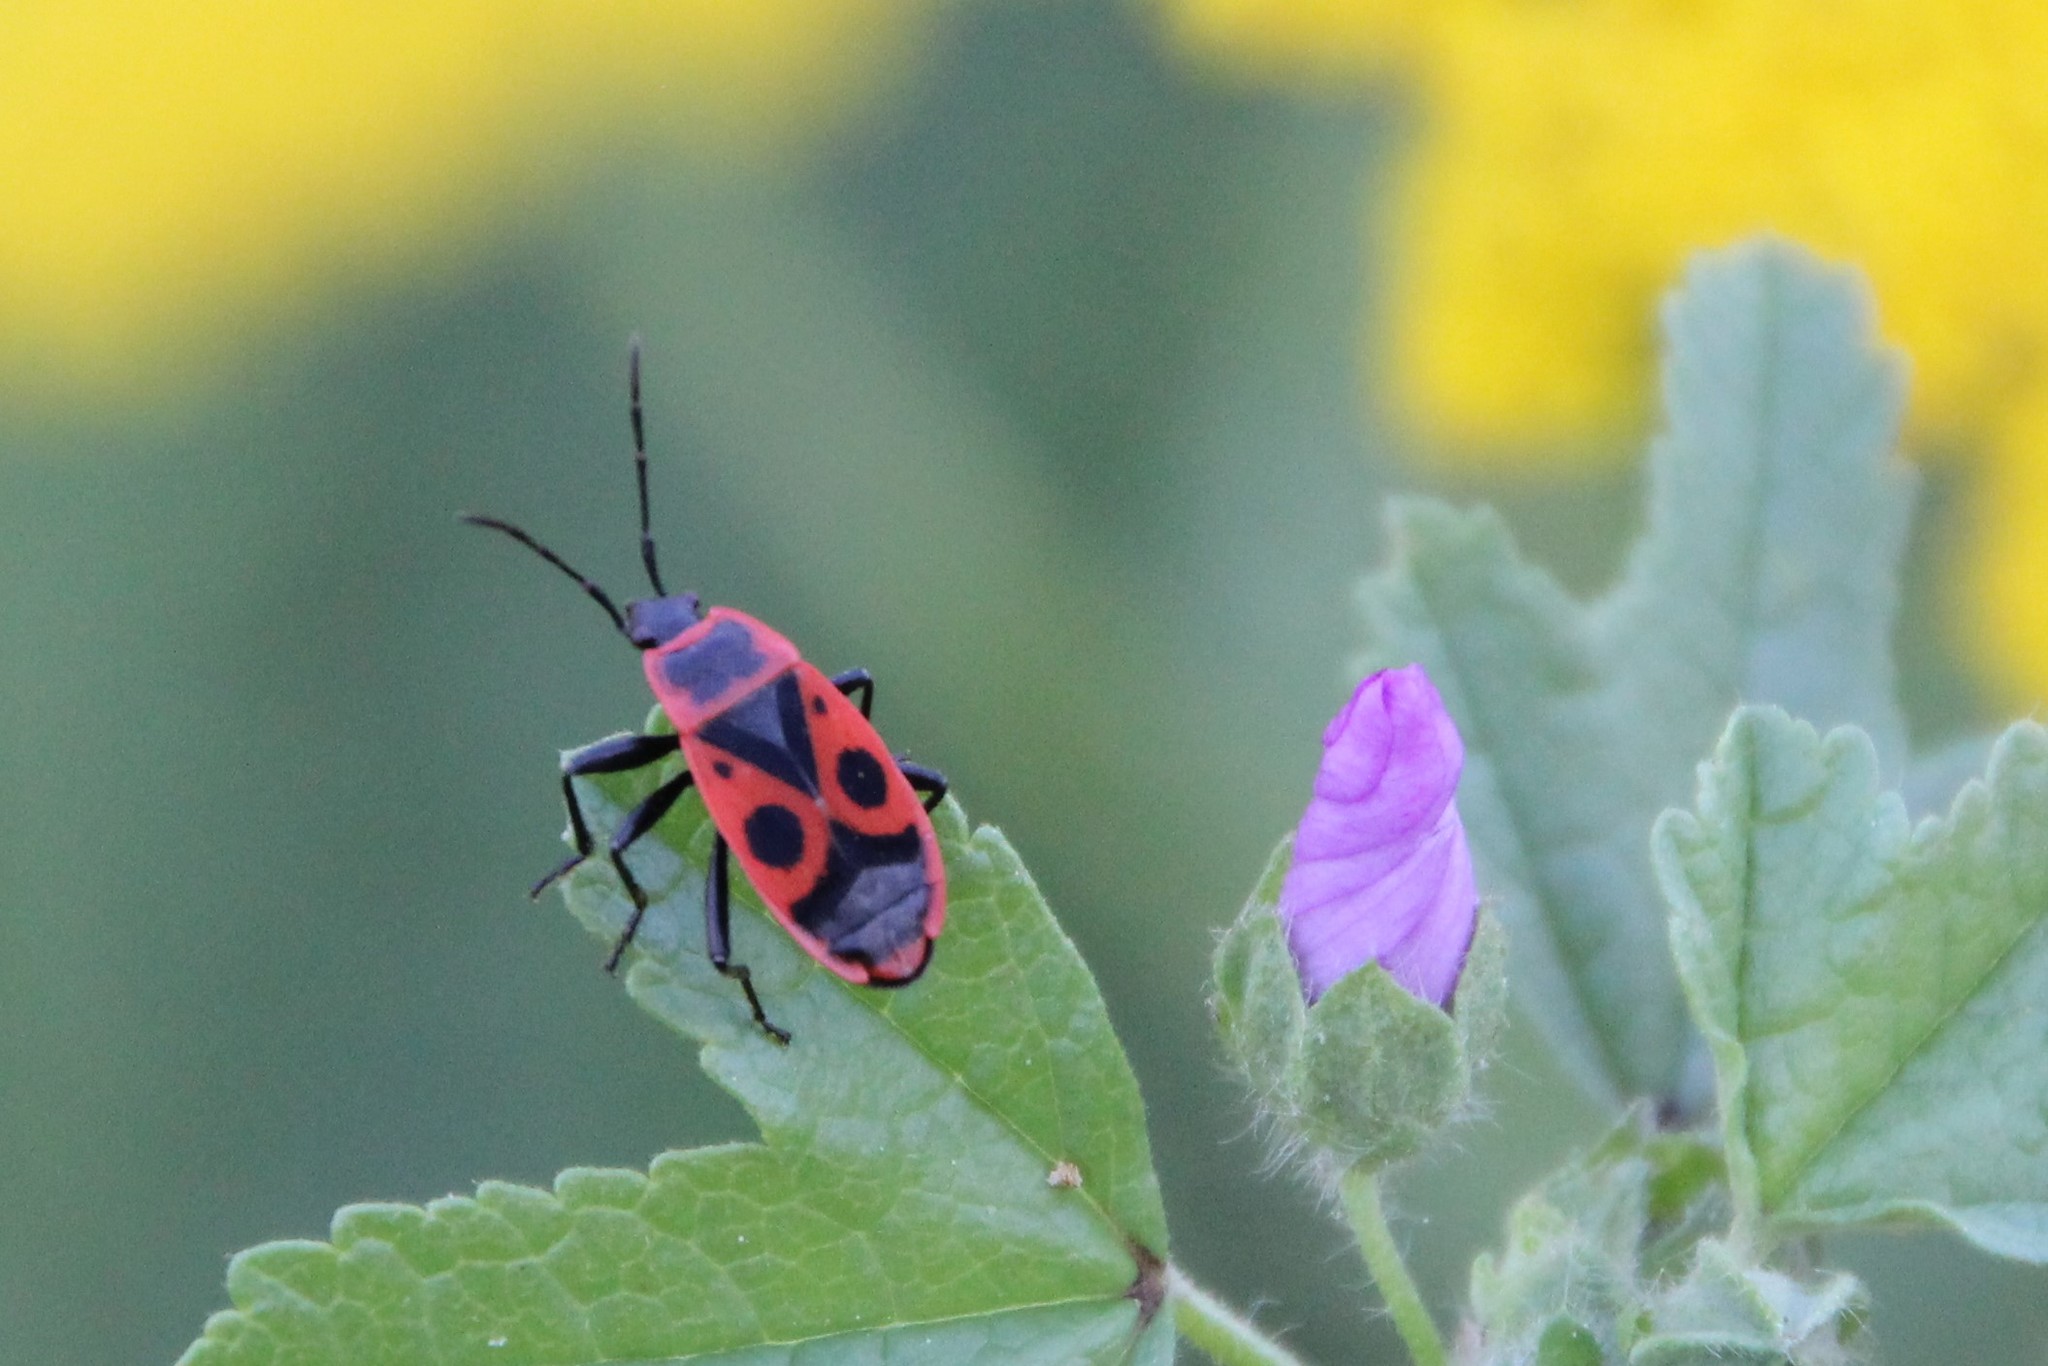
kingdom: Animalia
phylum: Arthropoda
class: Insecta
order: Hemiptera
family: Pyrrhocoridae
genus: Pyrrhocoris
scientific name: Pyrrhocoris apterus
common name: Firebug
